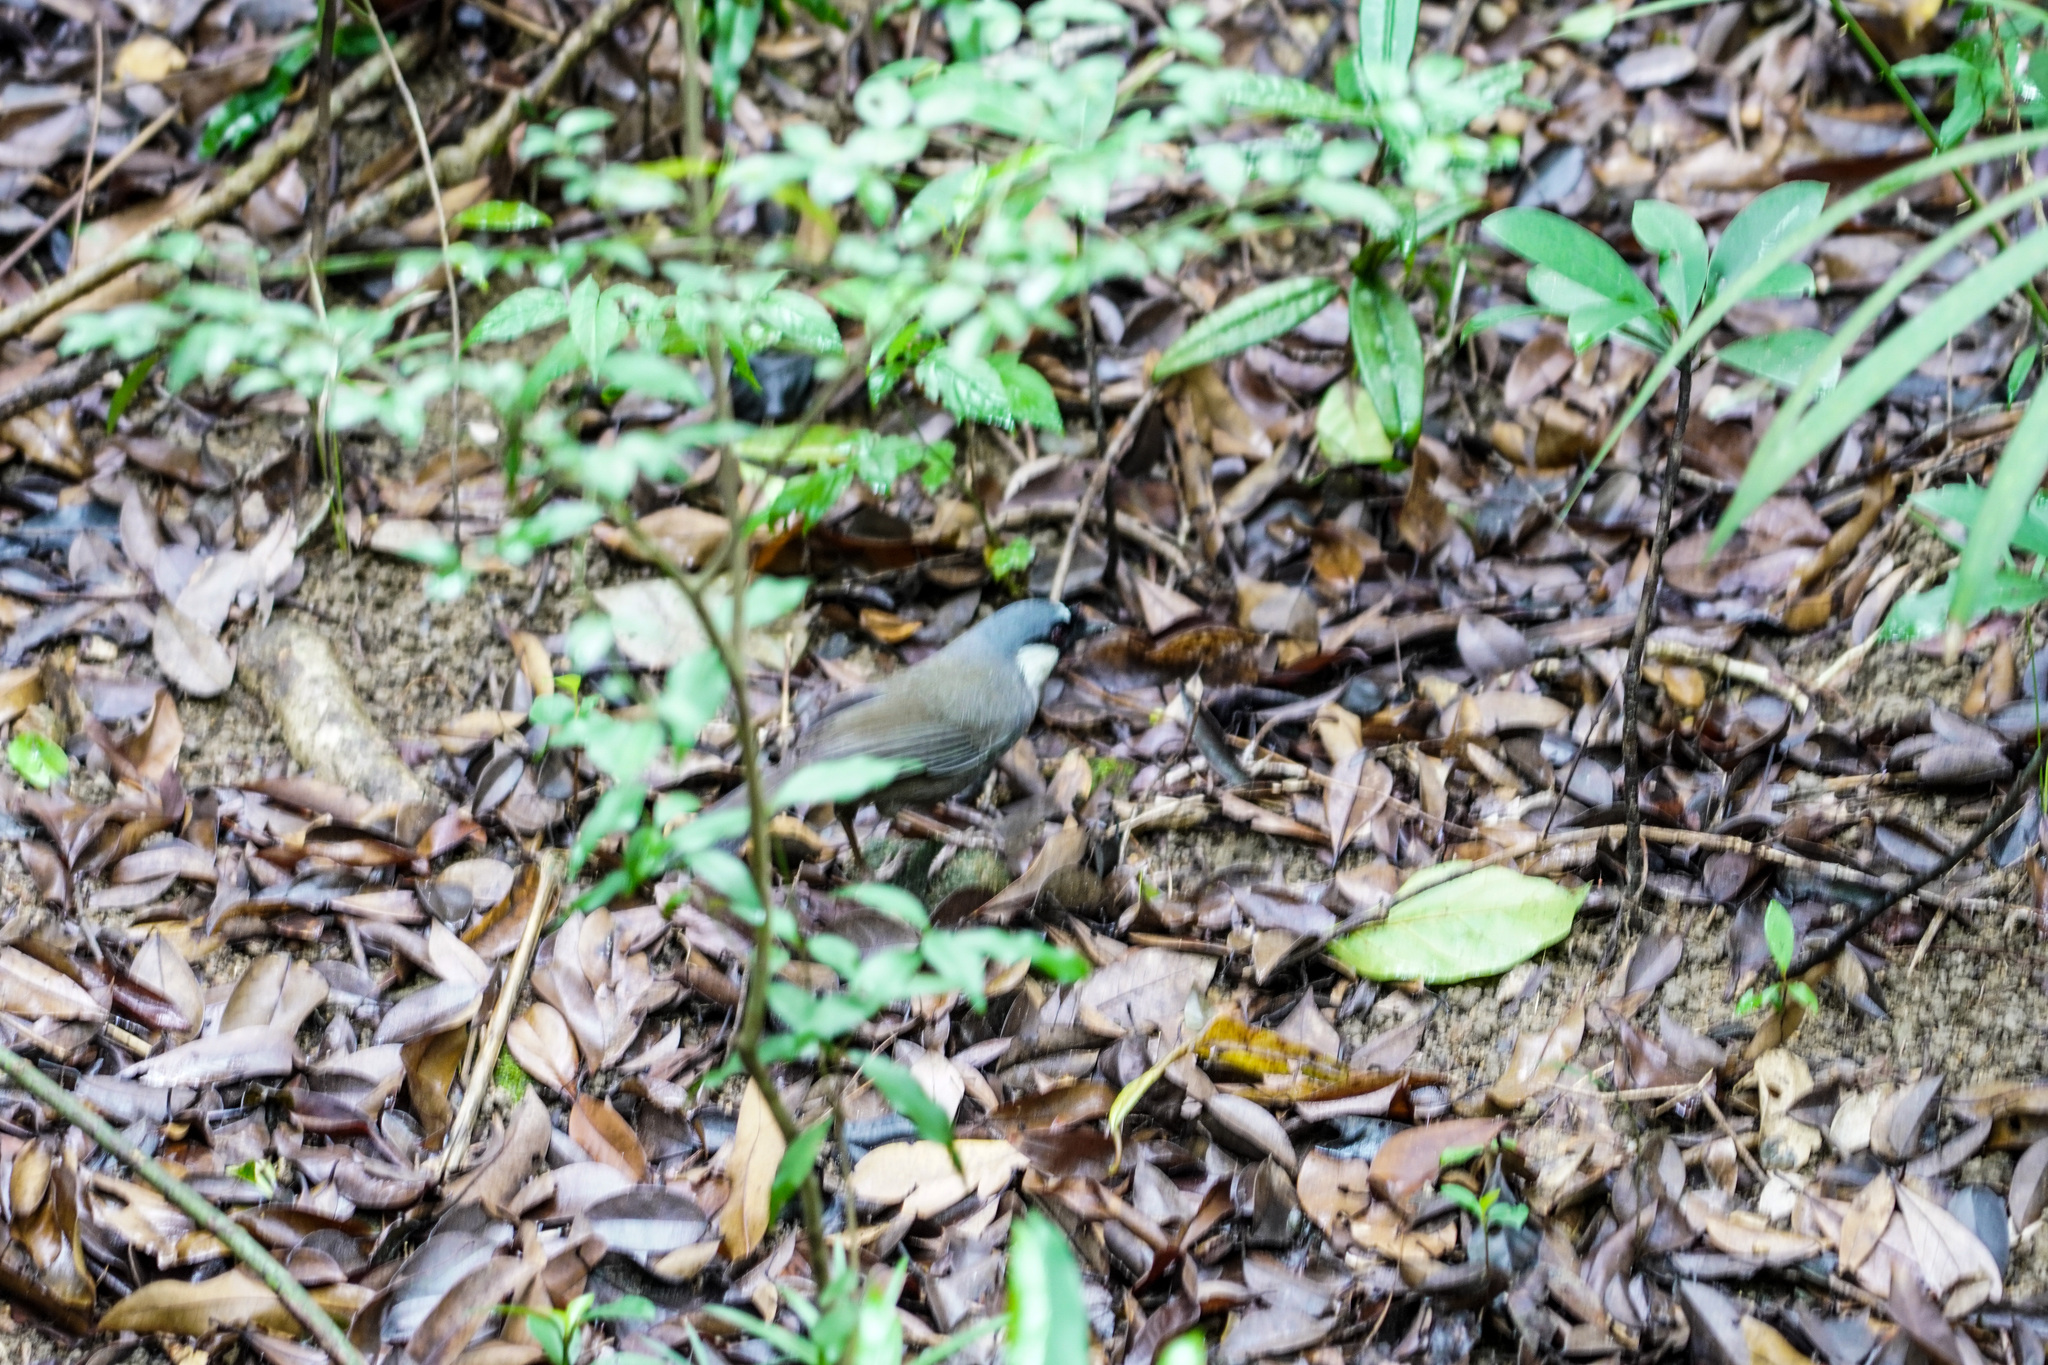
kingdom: Animalia
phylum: Chordata
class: Aves
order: Passeriformes
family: Leiothrichidae
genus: Garrulax
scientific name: Garrulax chinensis
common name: Black-throated laughingthrush
